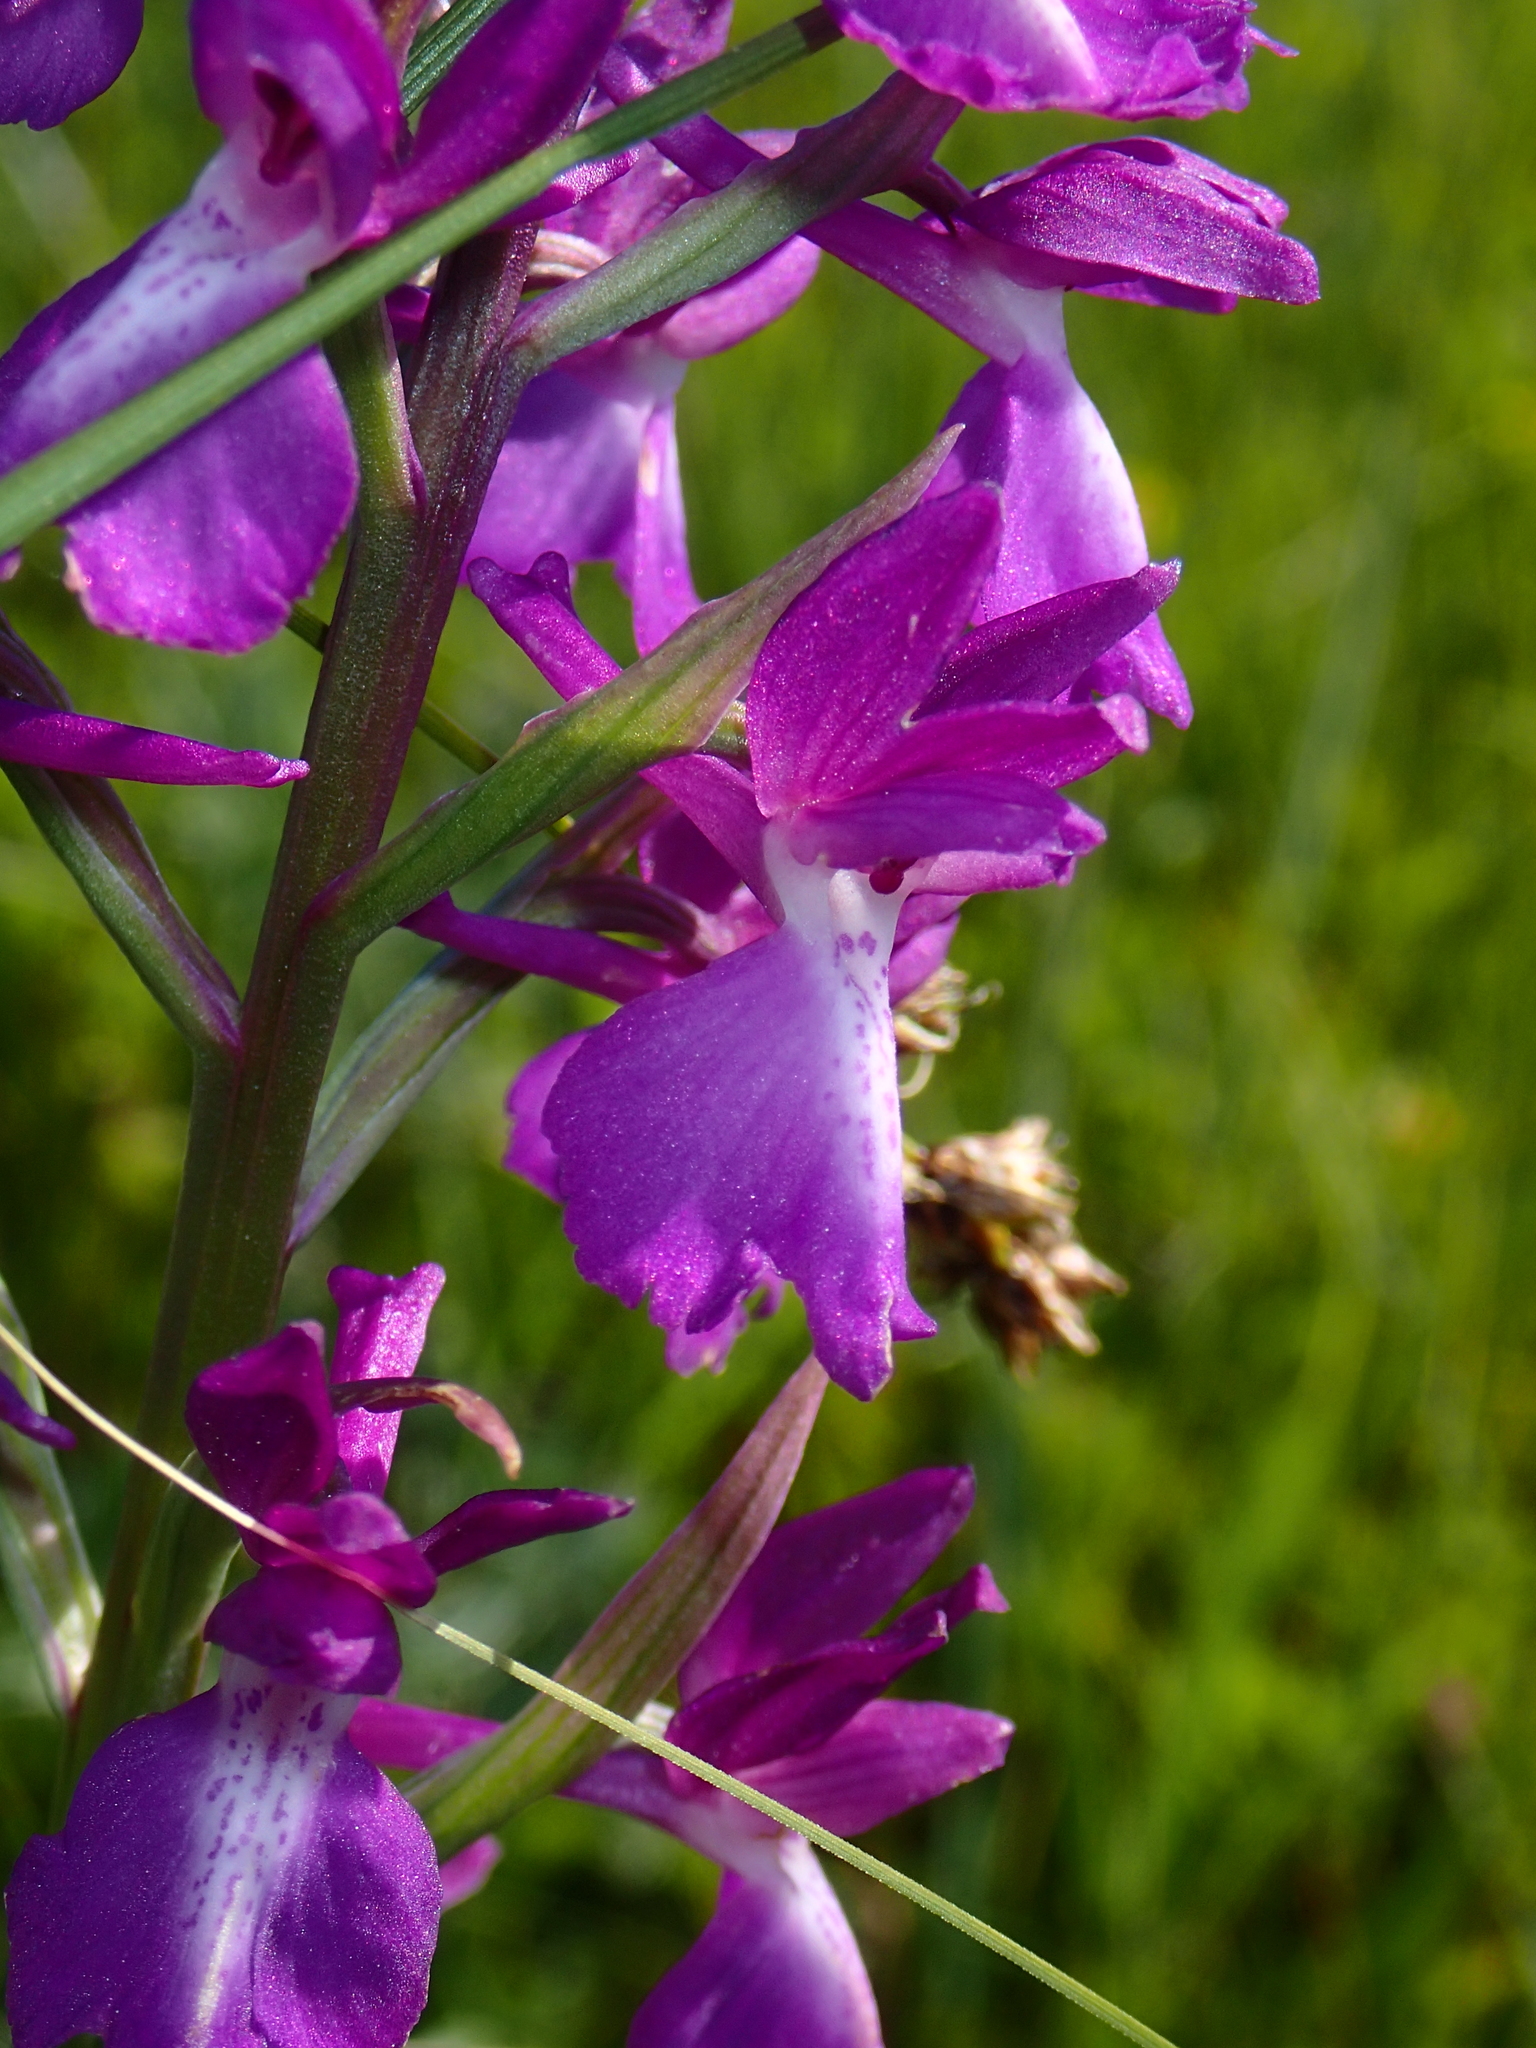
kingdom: Plantae
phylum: Tracheophyta
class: Liliopsida
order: Asparagales
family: Orchidaceae
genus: Anacamptis
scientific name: Anacamptis palustris
